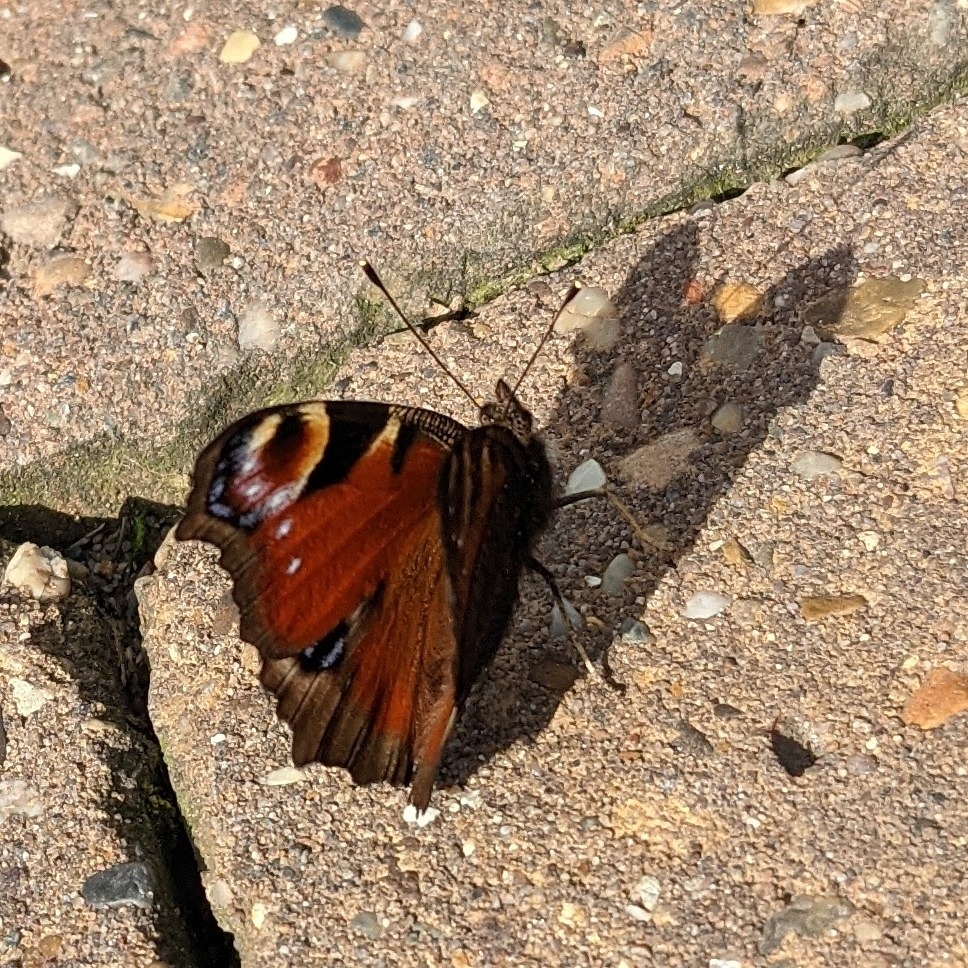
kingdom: Animalia
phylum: Arthropoda
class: Insecta
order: Lepidoptera
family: Nymphalidae
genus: Aglais
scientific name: Aglais io
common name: Peacock
